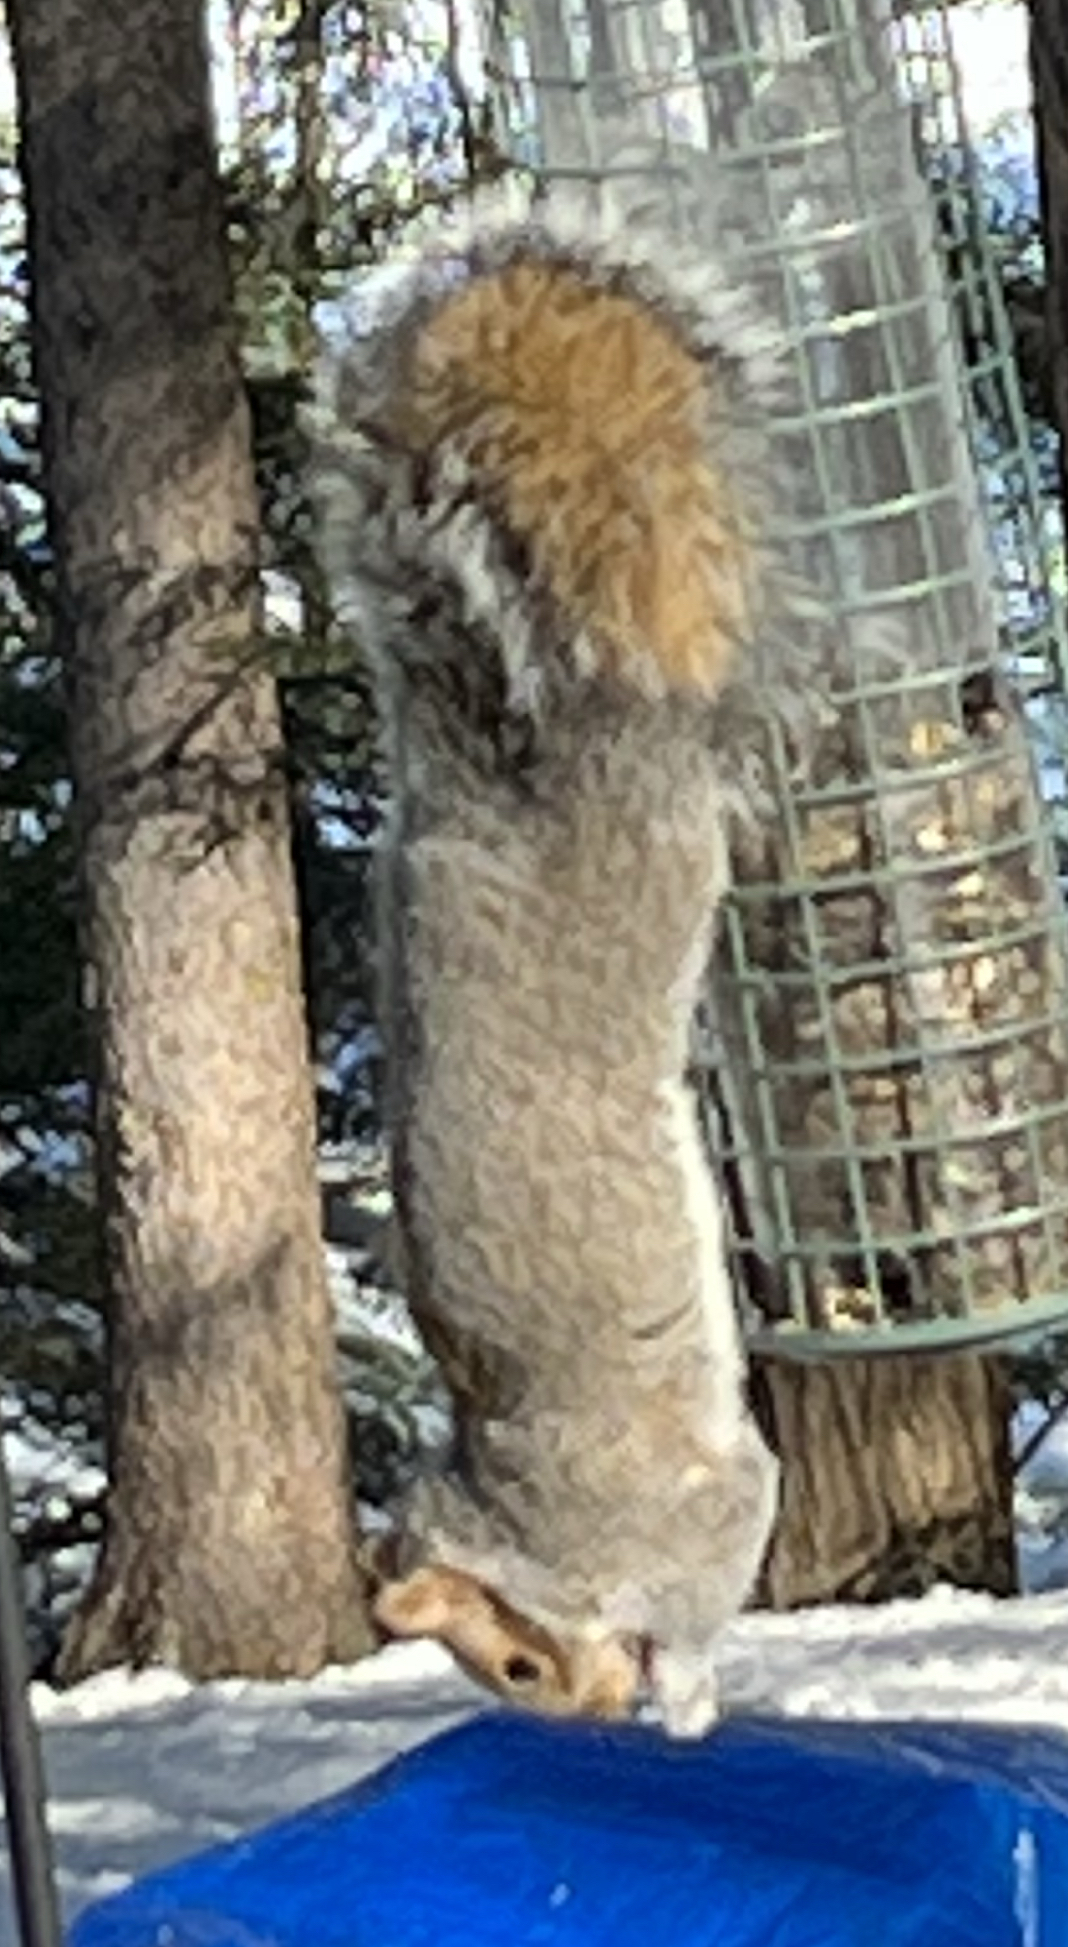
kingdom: Animalia
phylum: Chordata
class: Mammalia
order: Rodentia
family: Sciuridae
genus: Sciurus
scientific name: Sciurus carolinensis
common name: Eastern gray squirrel
